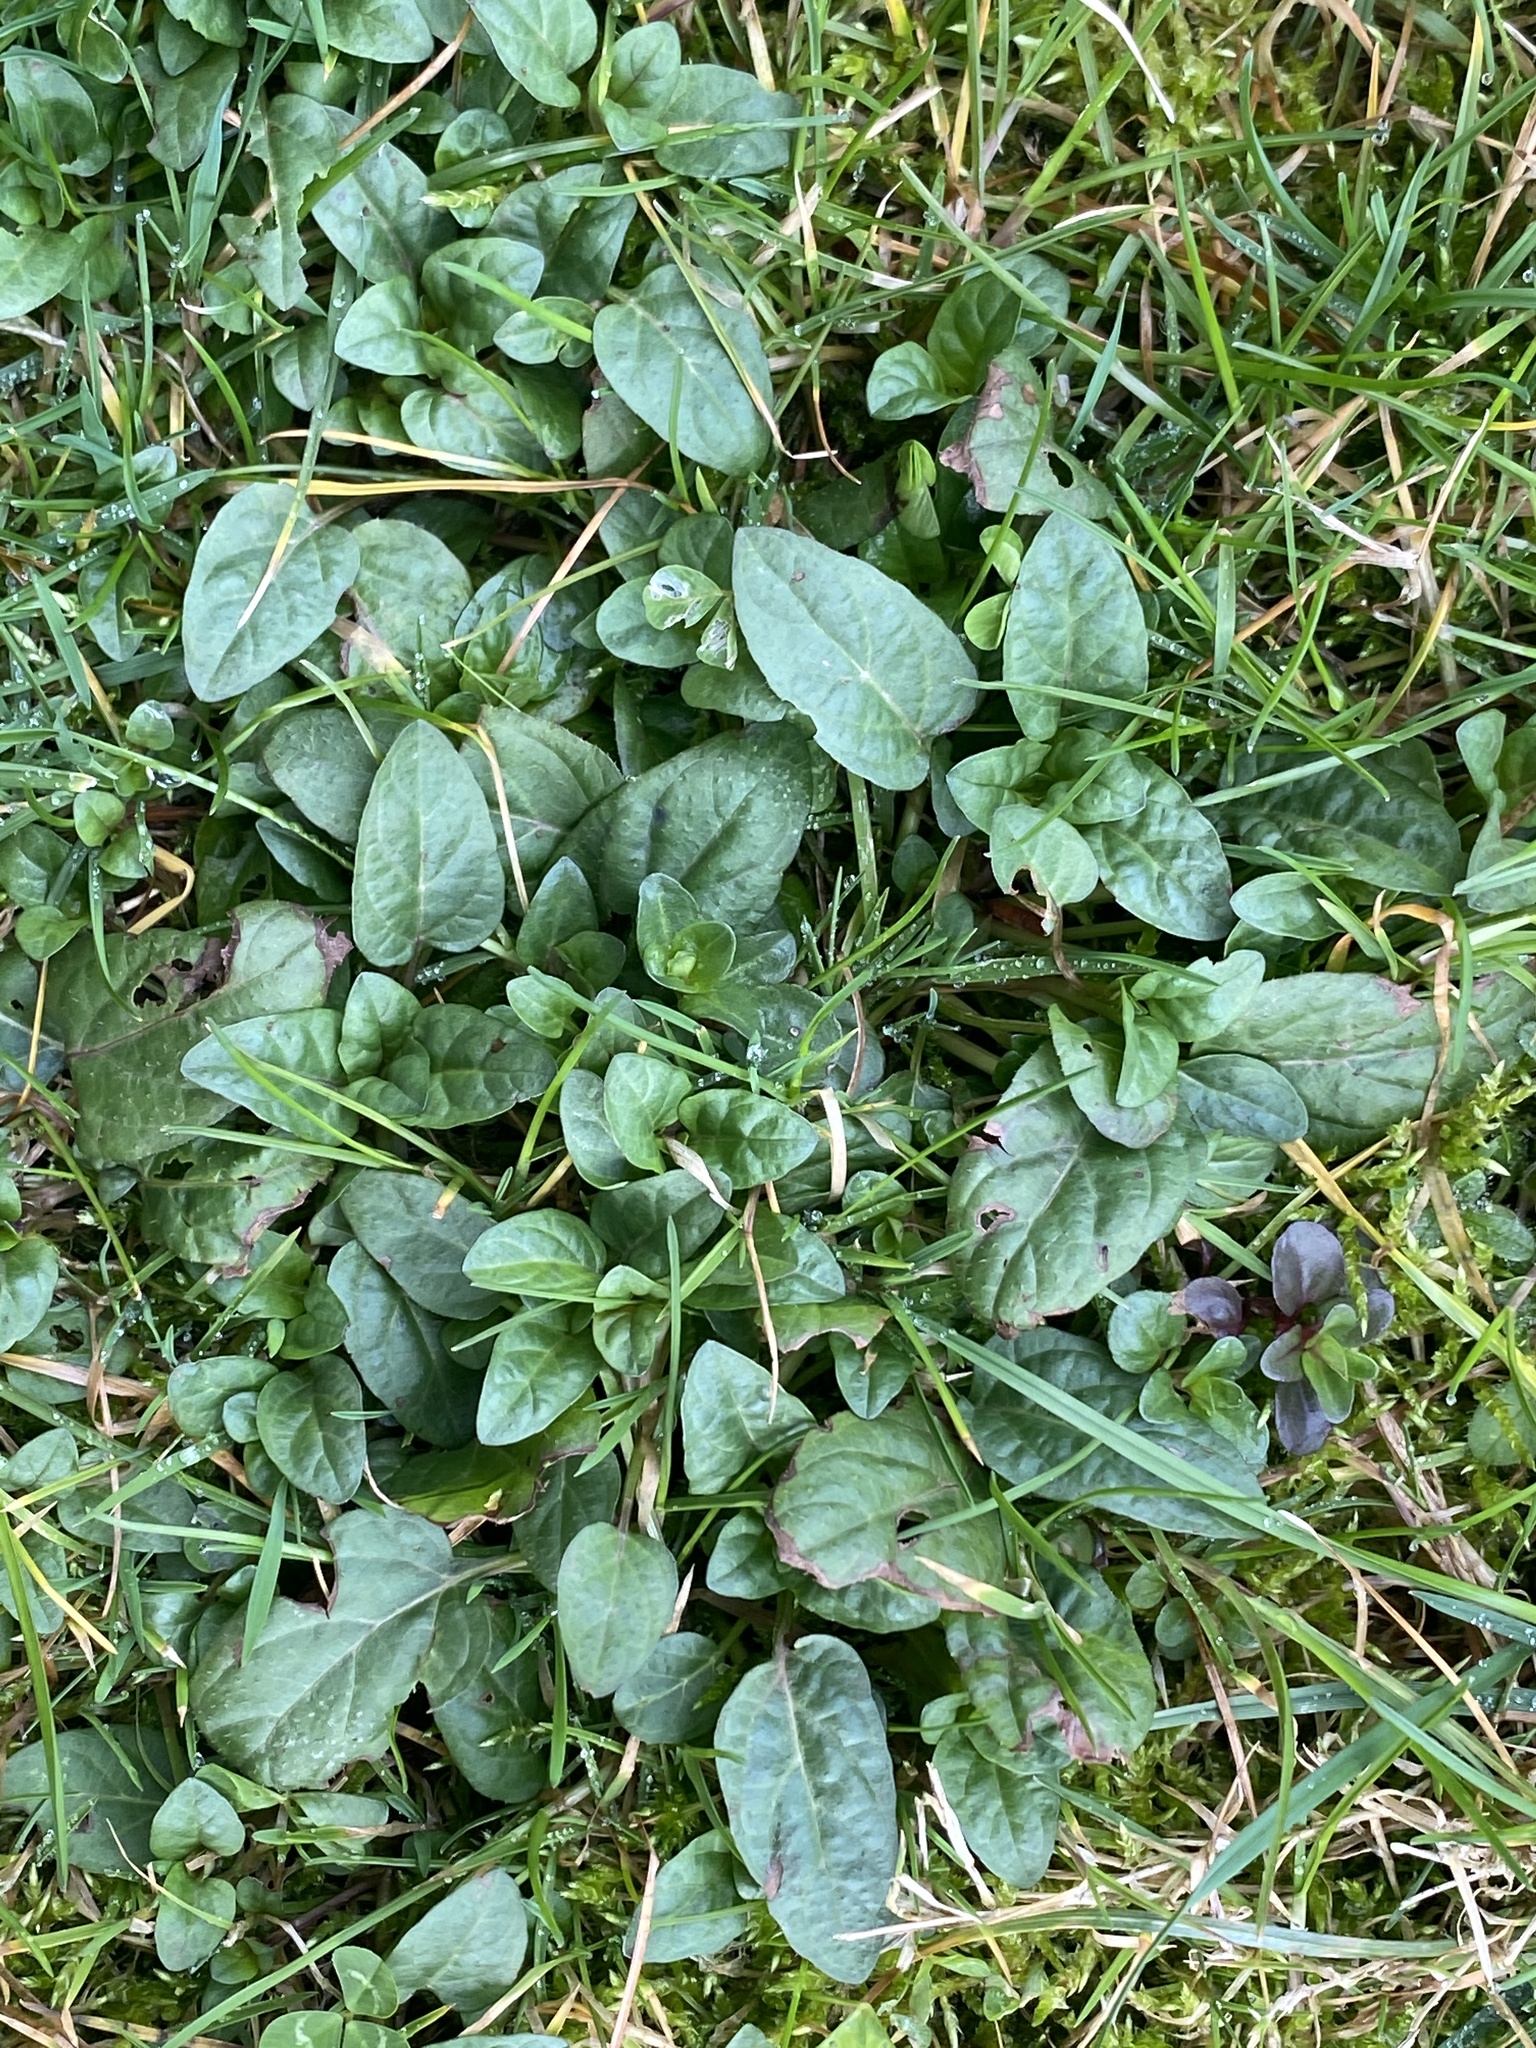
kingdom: Plantae
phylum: Tracheophyta
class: Magnoliopsida
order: Lamiales
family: Lamiaceae
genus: Prunella
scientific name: Prunella vulgaris
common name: Heal-all
